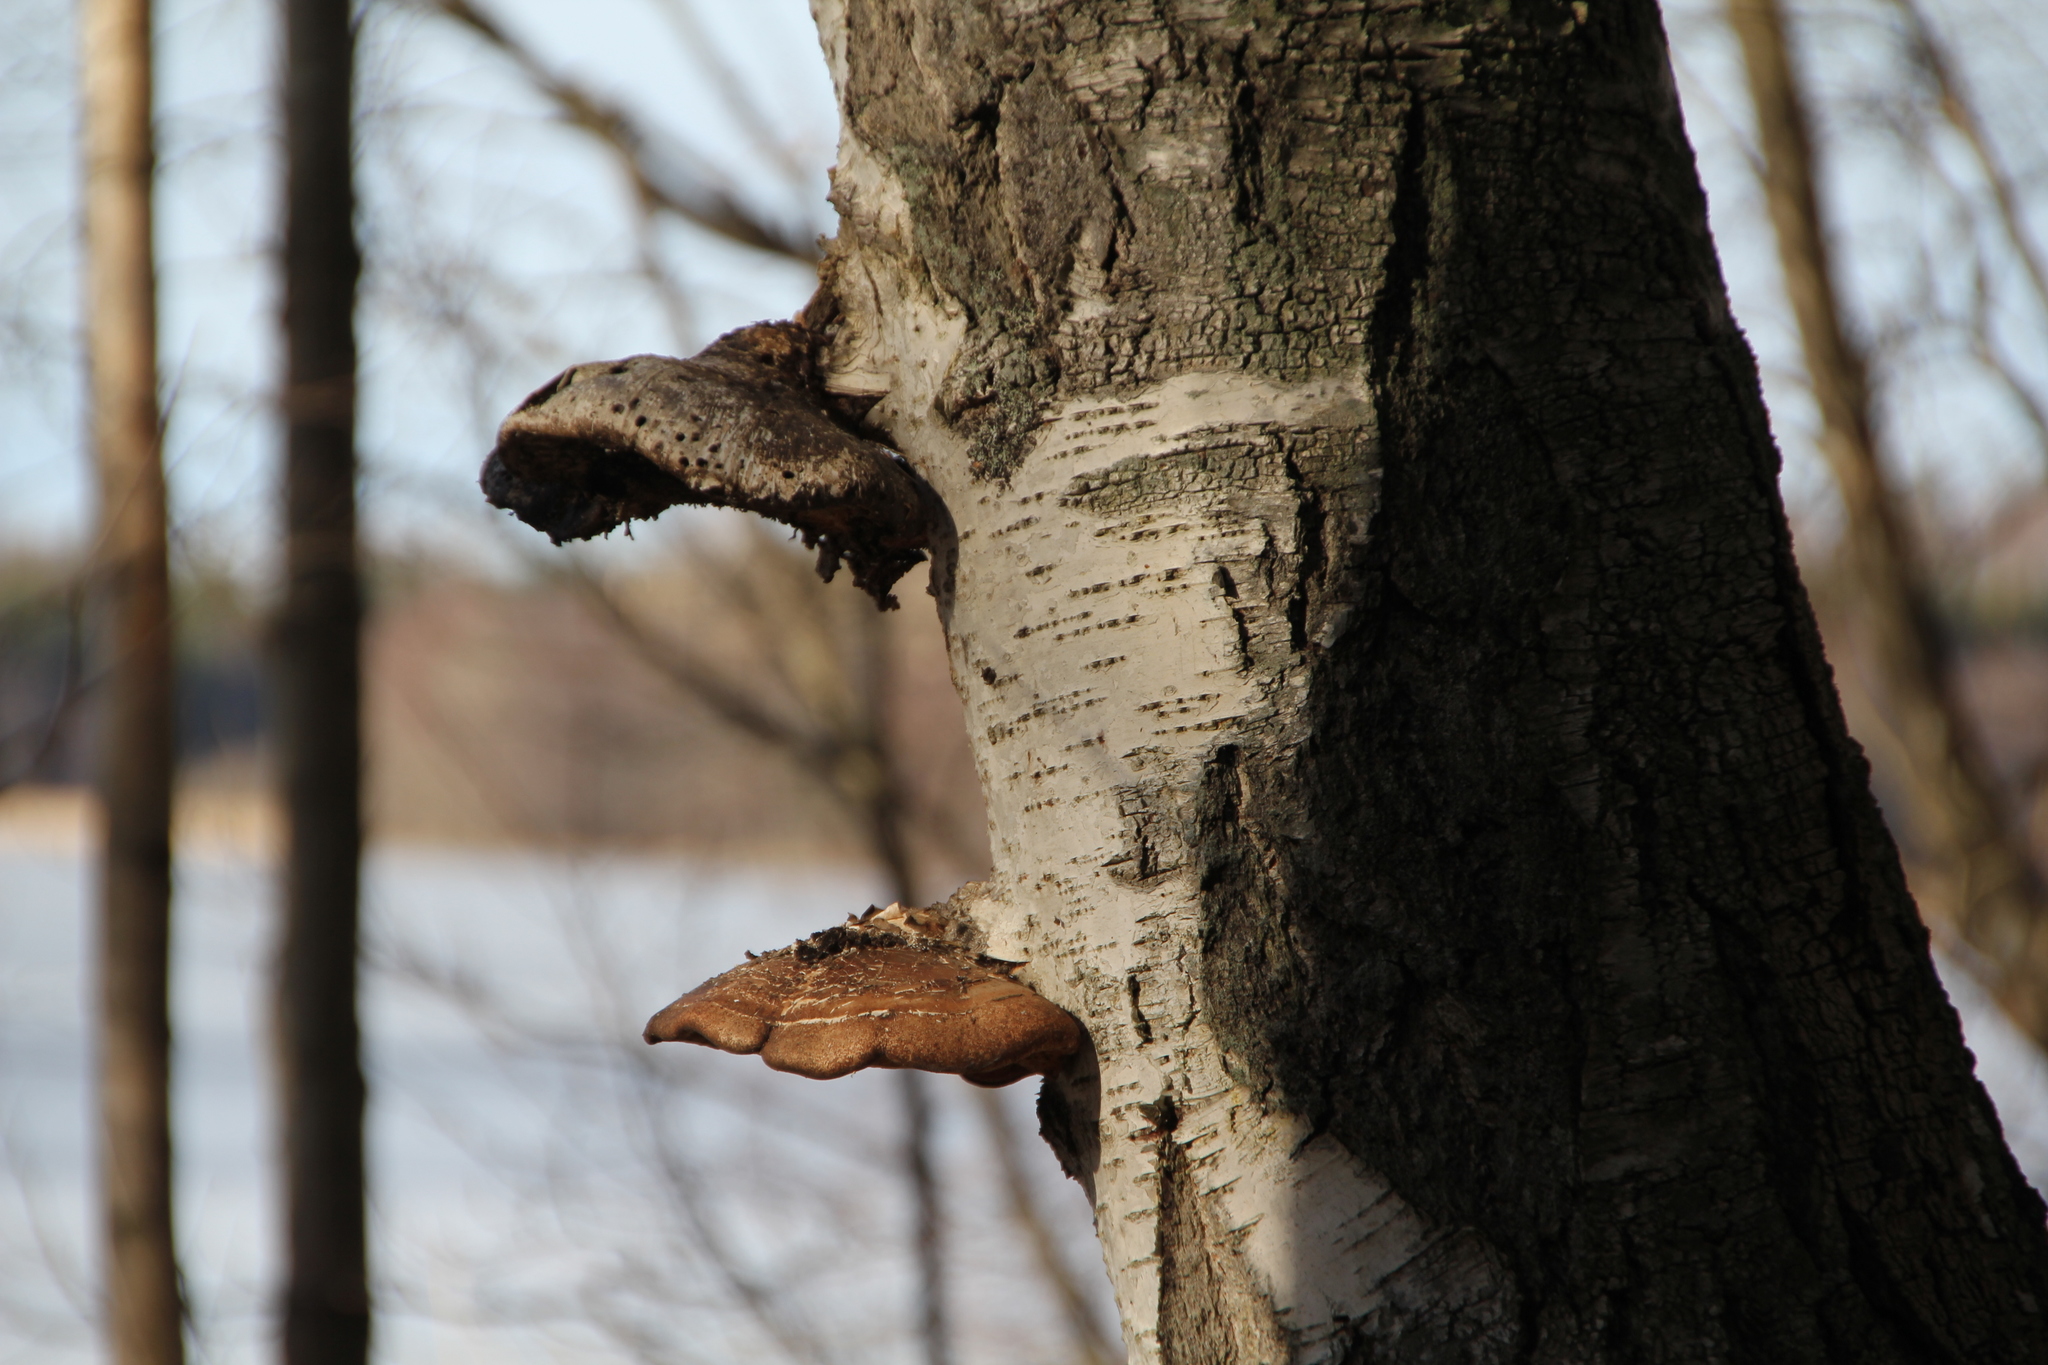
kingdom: Fungi
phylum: Basidiomycota
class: Agaricomycetes
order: Polyporales
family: Fomitopsidaceae
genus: Fomitopsis
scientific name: Fomitopsis betulina
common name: Birch polypore
